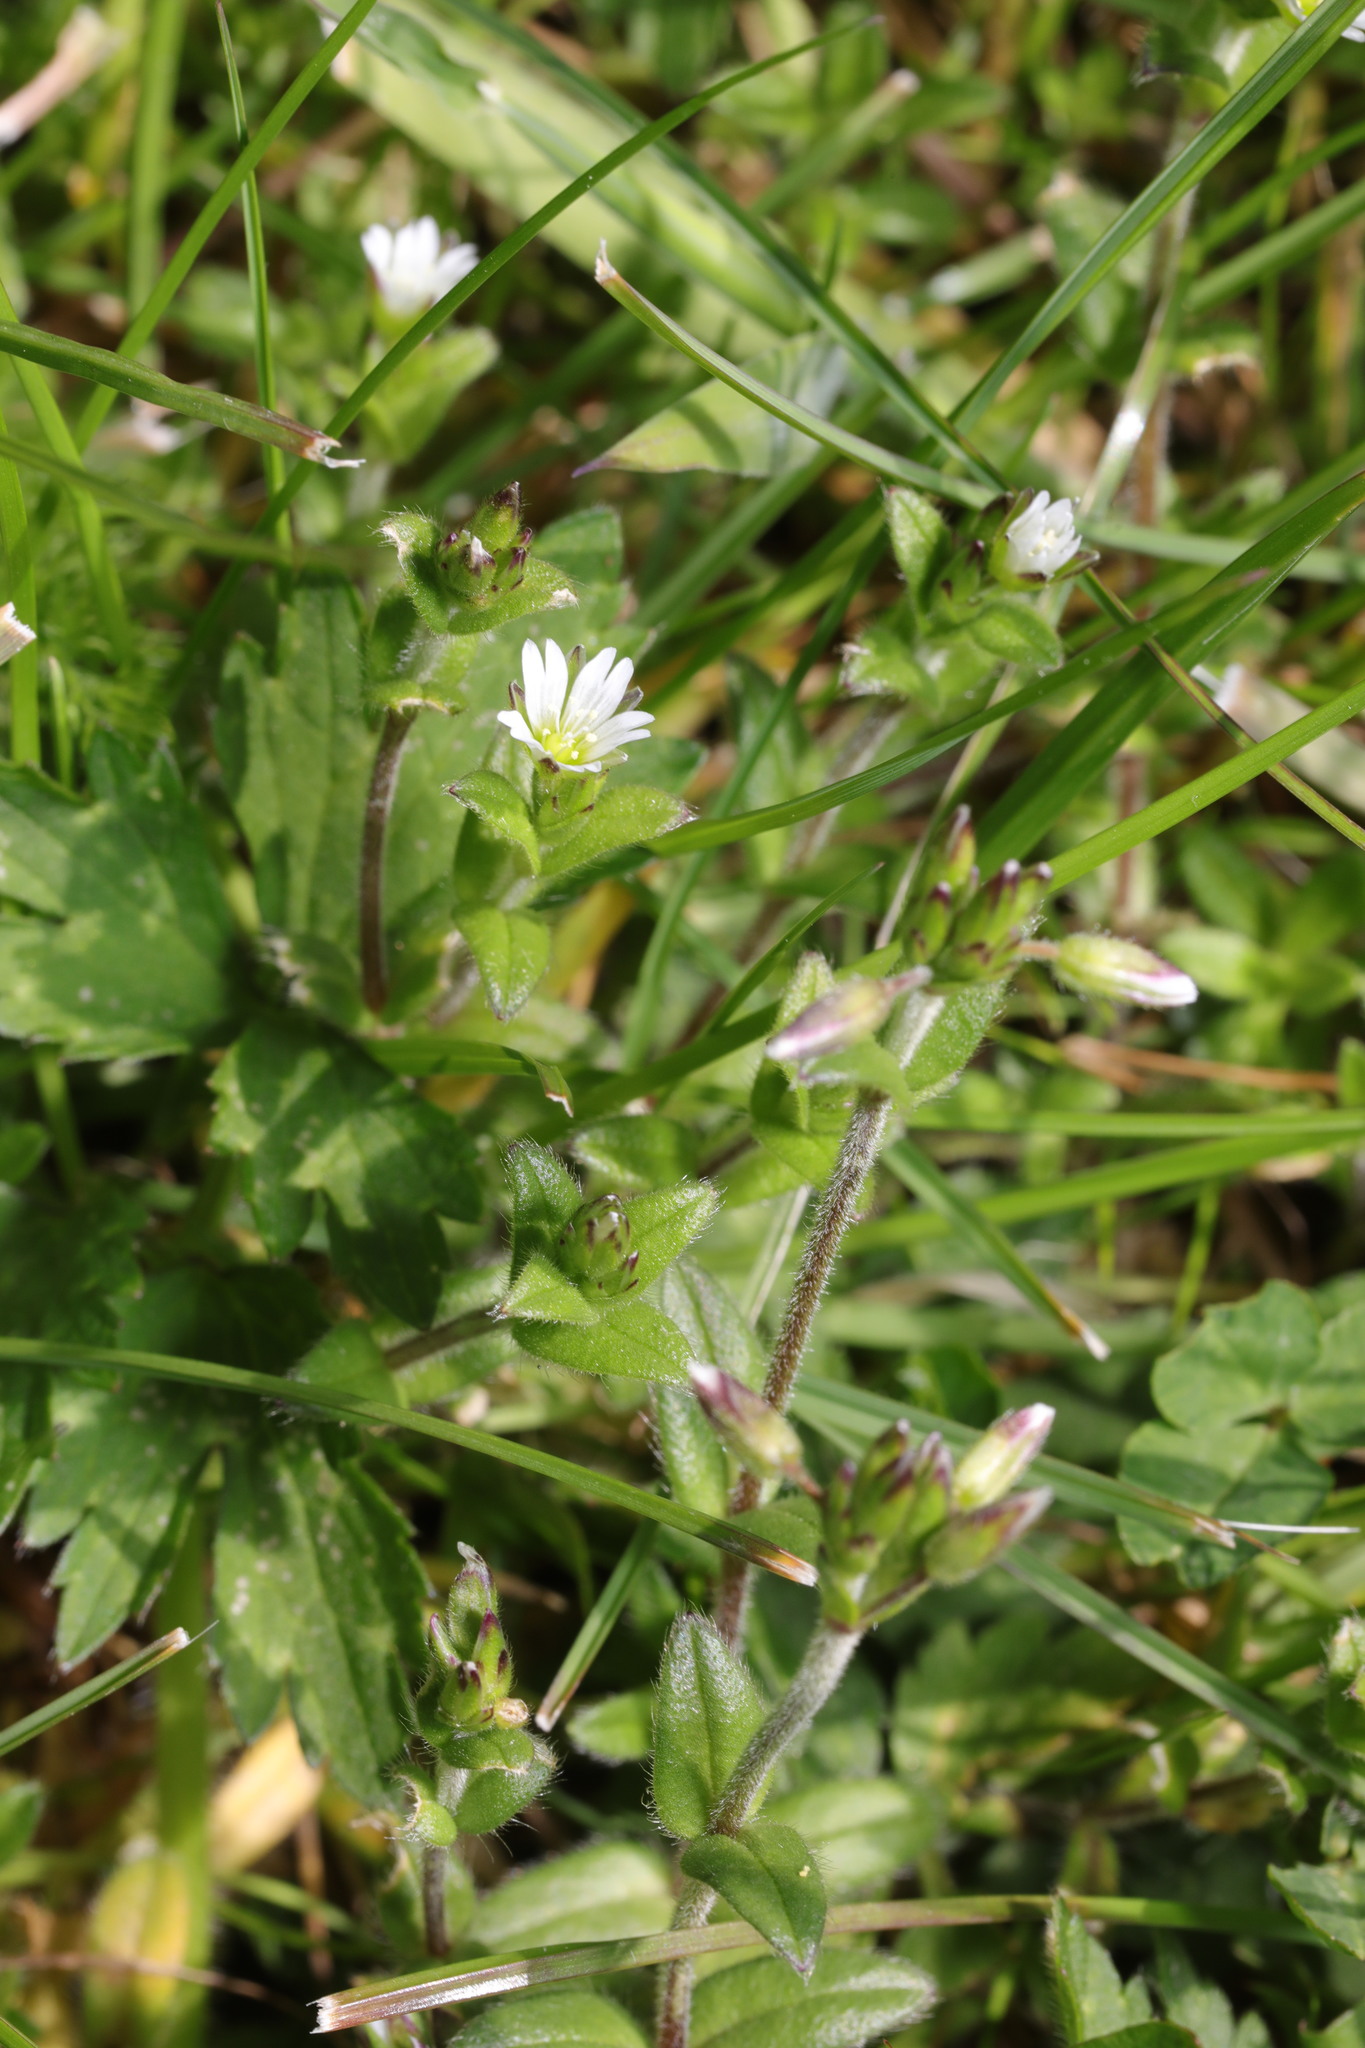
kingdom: Plantae
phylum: Tracheophyta
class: Magnoliopsida
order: Caryophyllales
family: Caryophyllaceae
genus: Cerastium
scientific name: Cerastium fontanum
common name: Common mouse-ear
